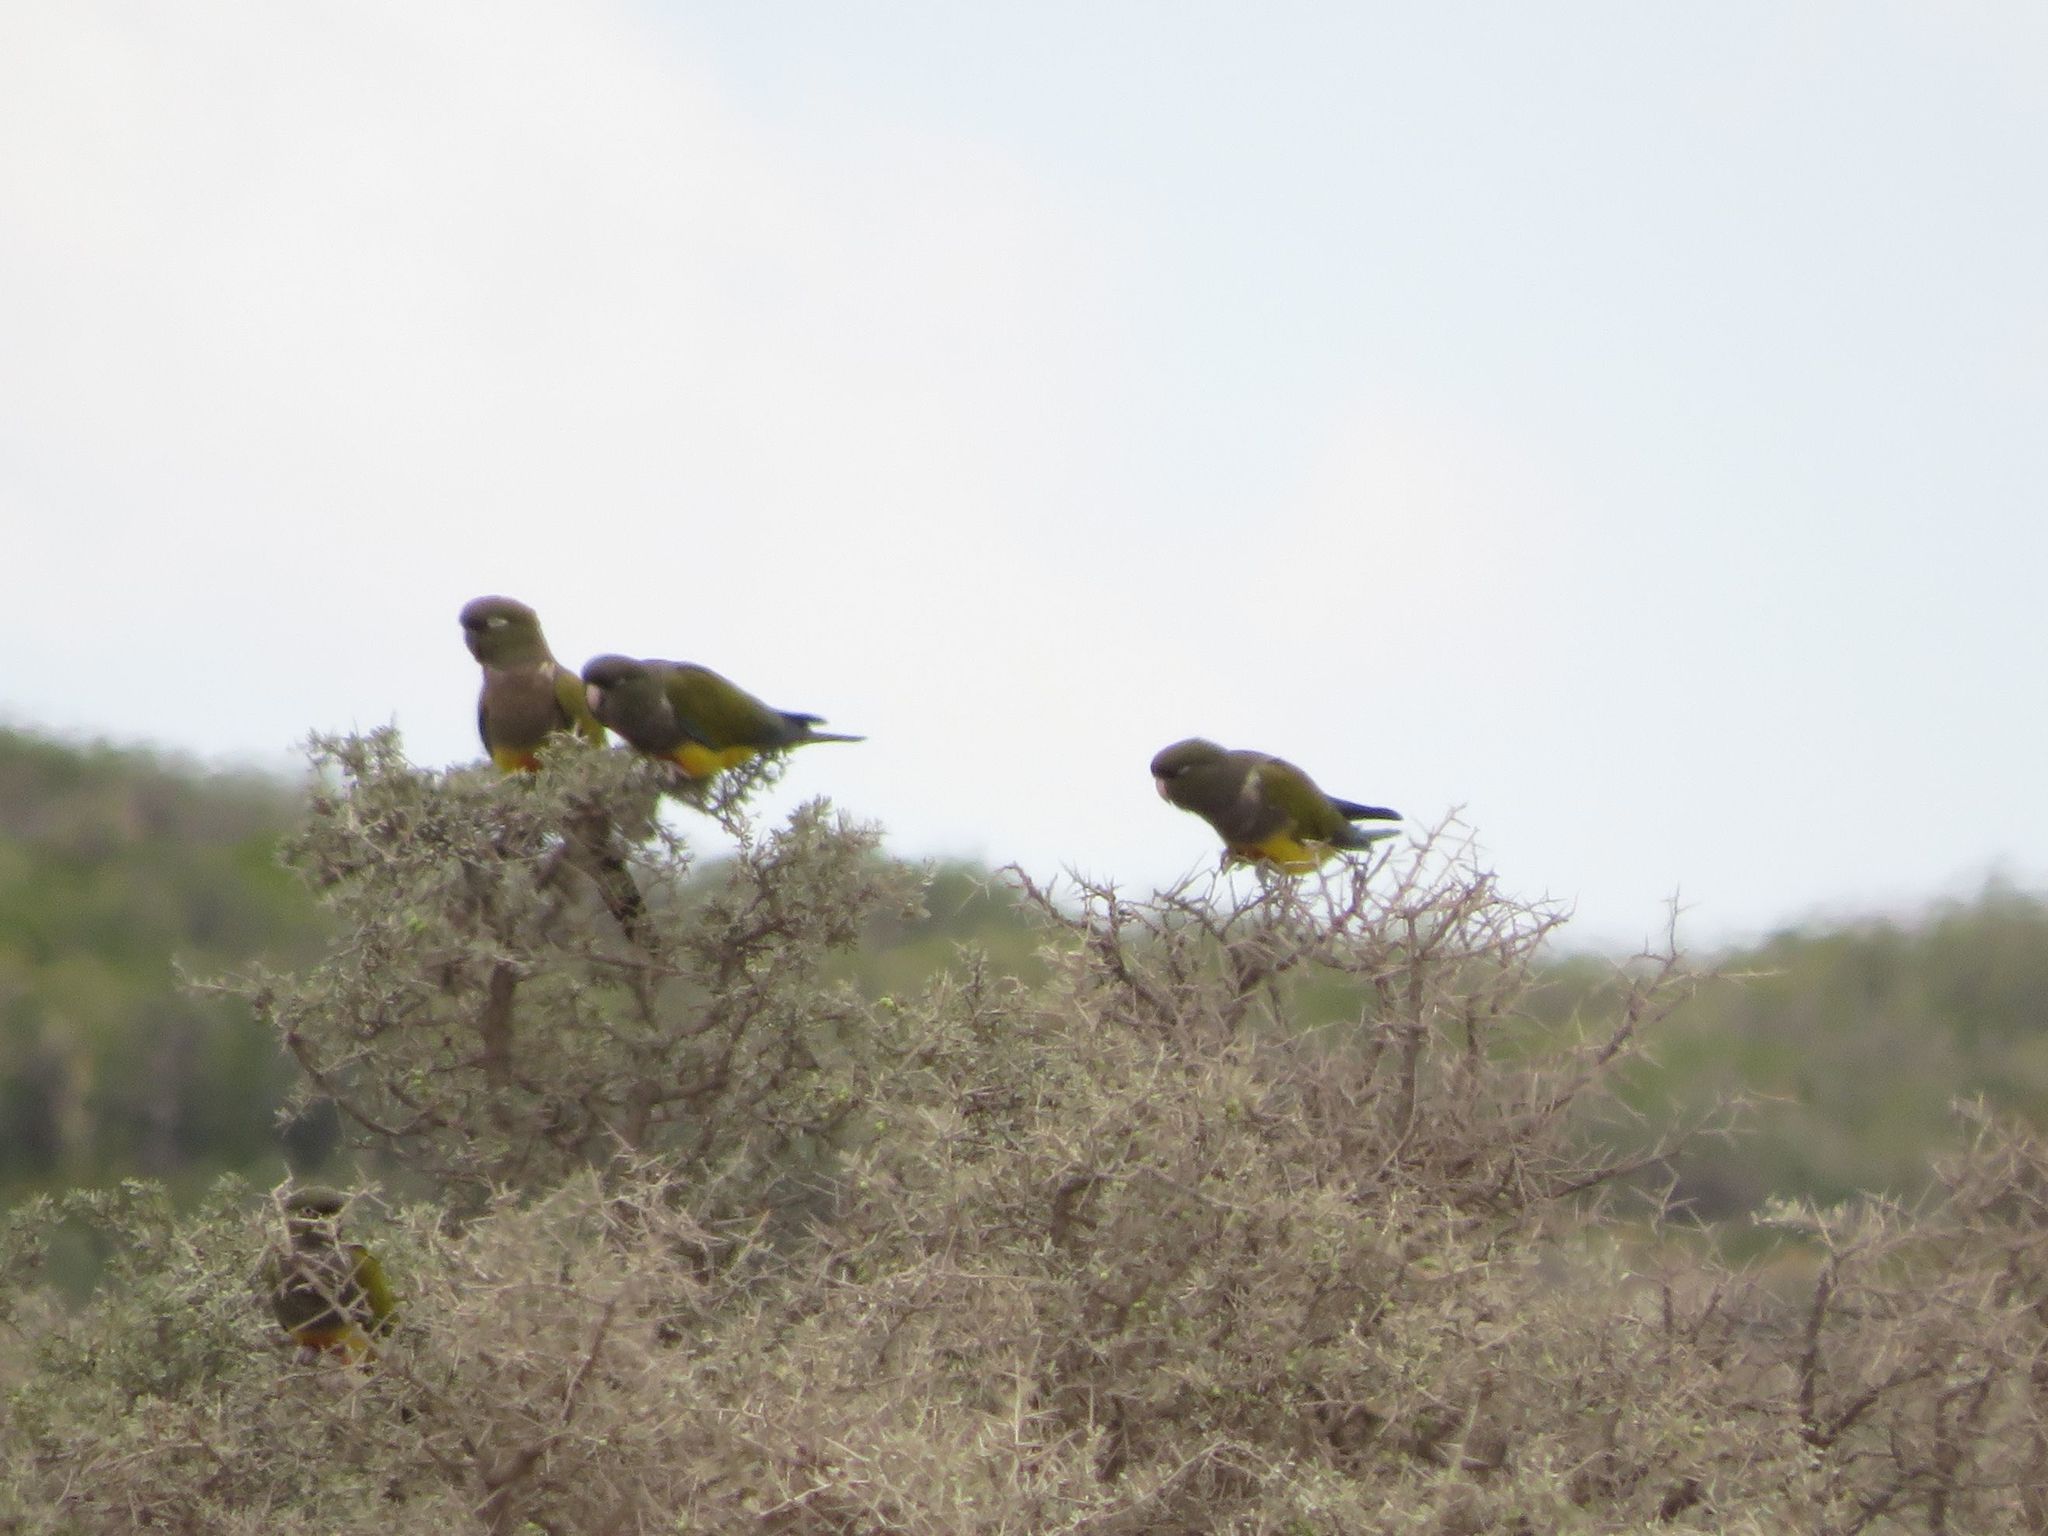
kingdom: Animalia
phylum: Chordata
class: Aves
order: Psittaciformes
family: Psittacidae
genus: Cyanoliseus
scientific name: Cyanoliseus patagonus
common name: Burrowing parrot
